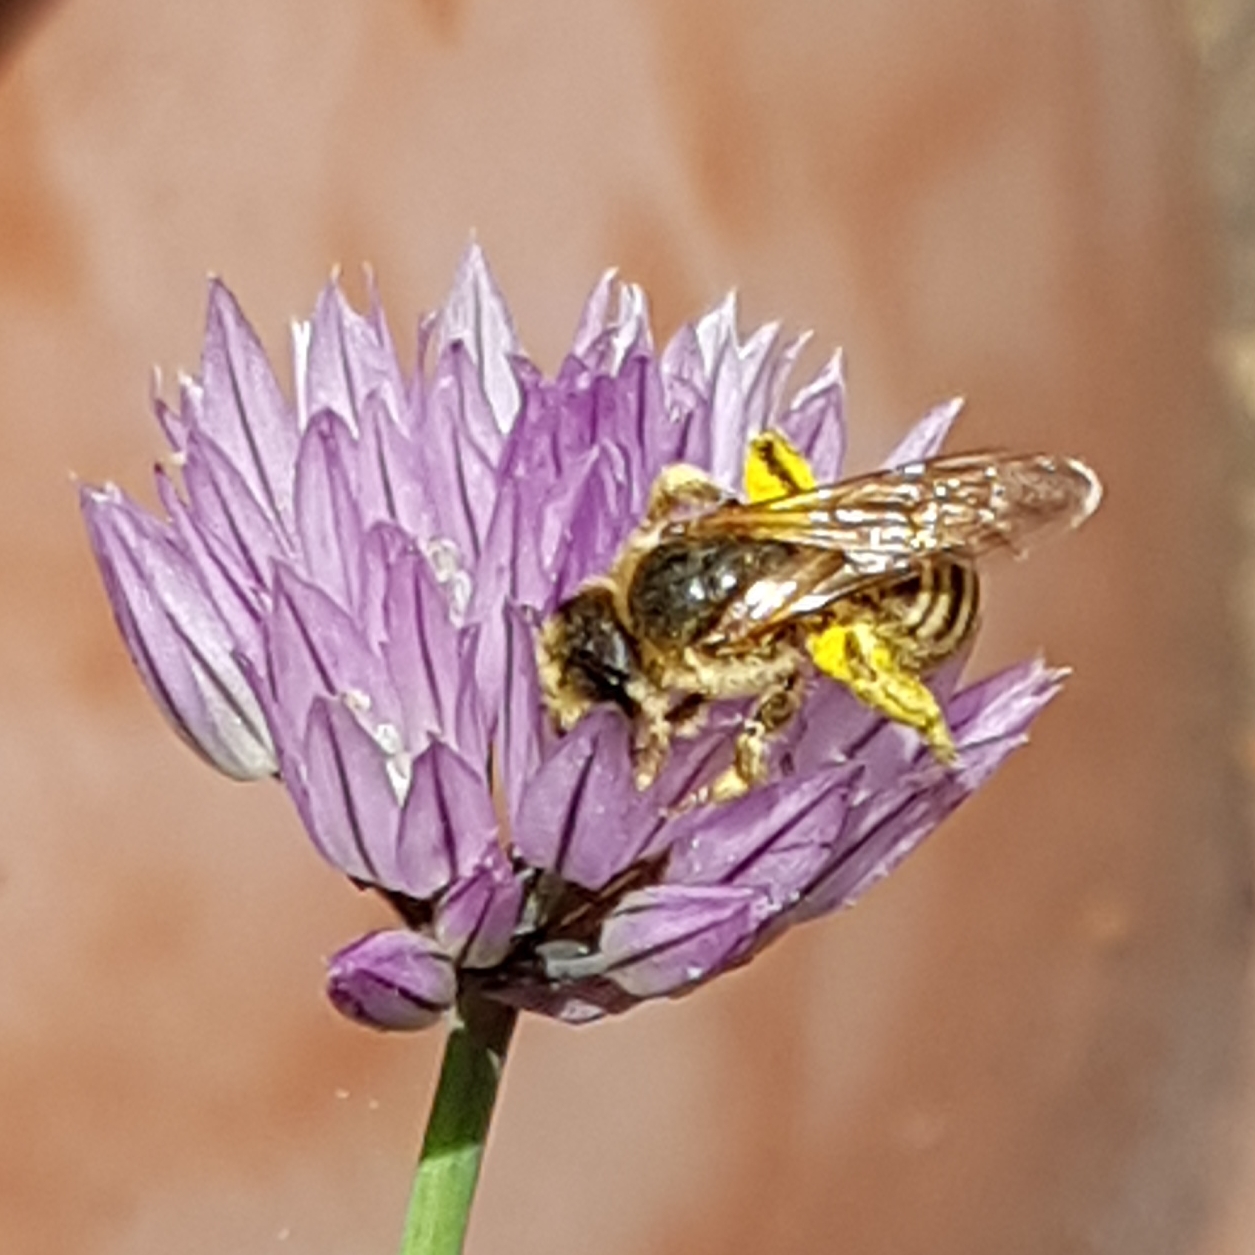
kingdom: Animalia
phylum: Arthropoda
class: Insecta
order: Hymenoptera
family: Halictidae
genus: Halictus
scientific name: Halictus scabiosae
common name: Great banded furrow bee
